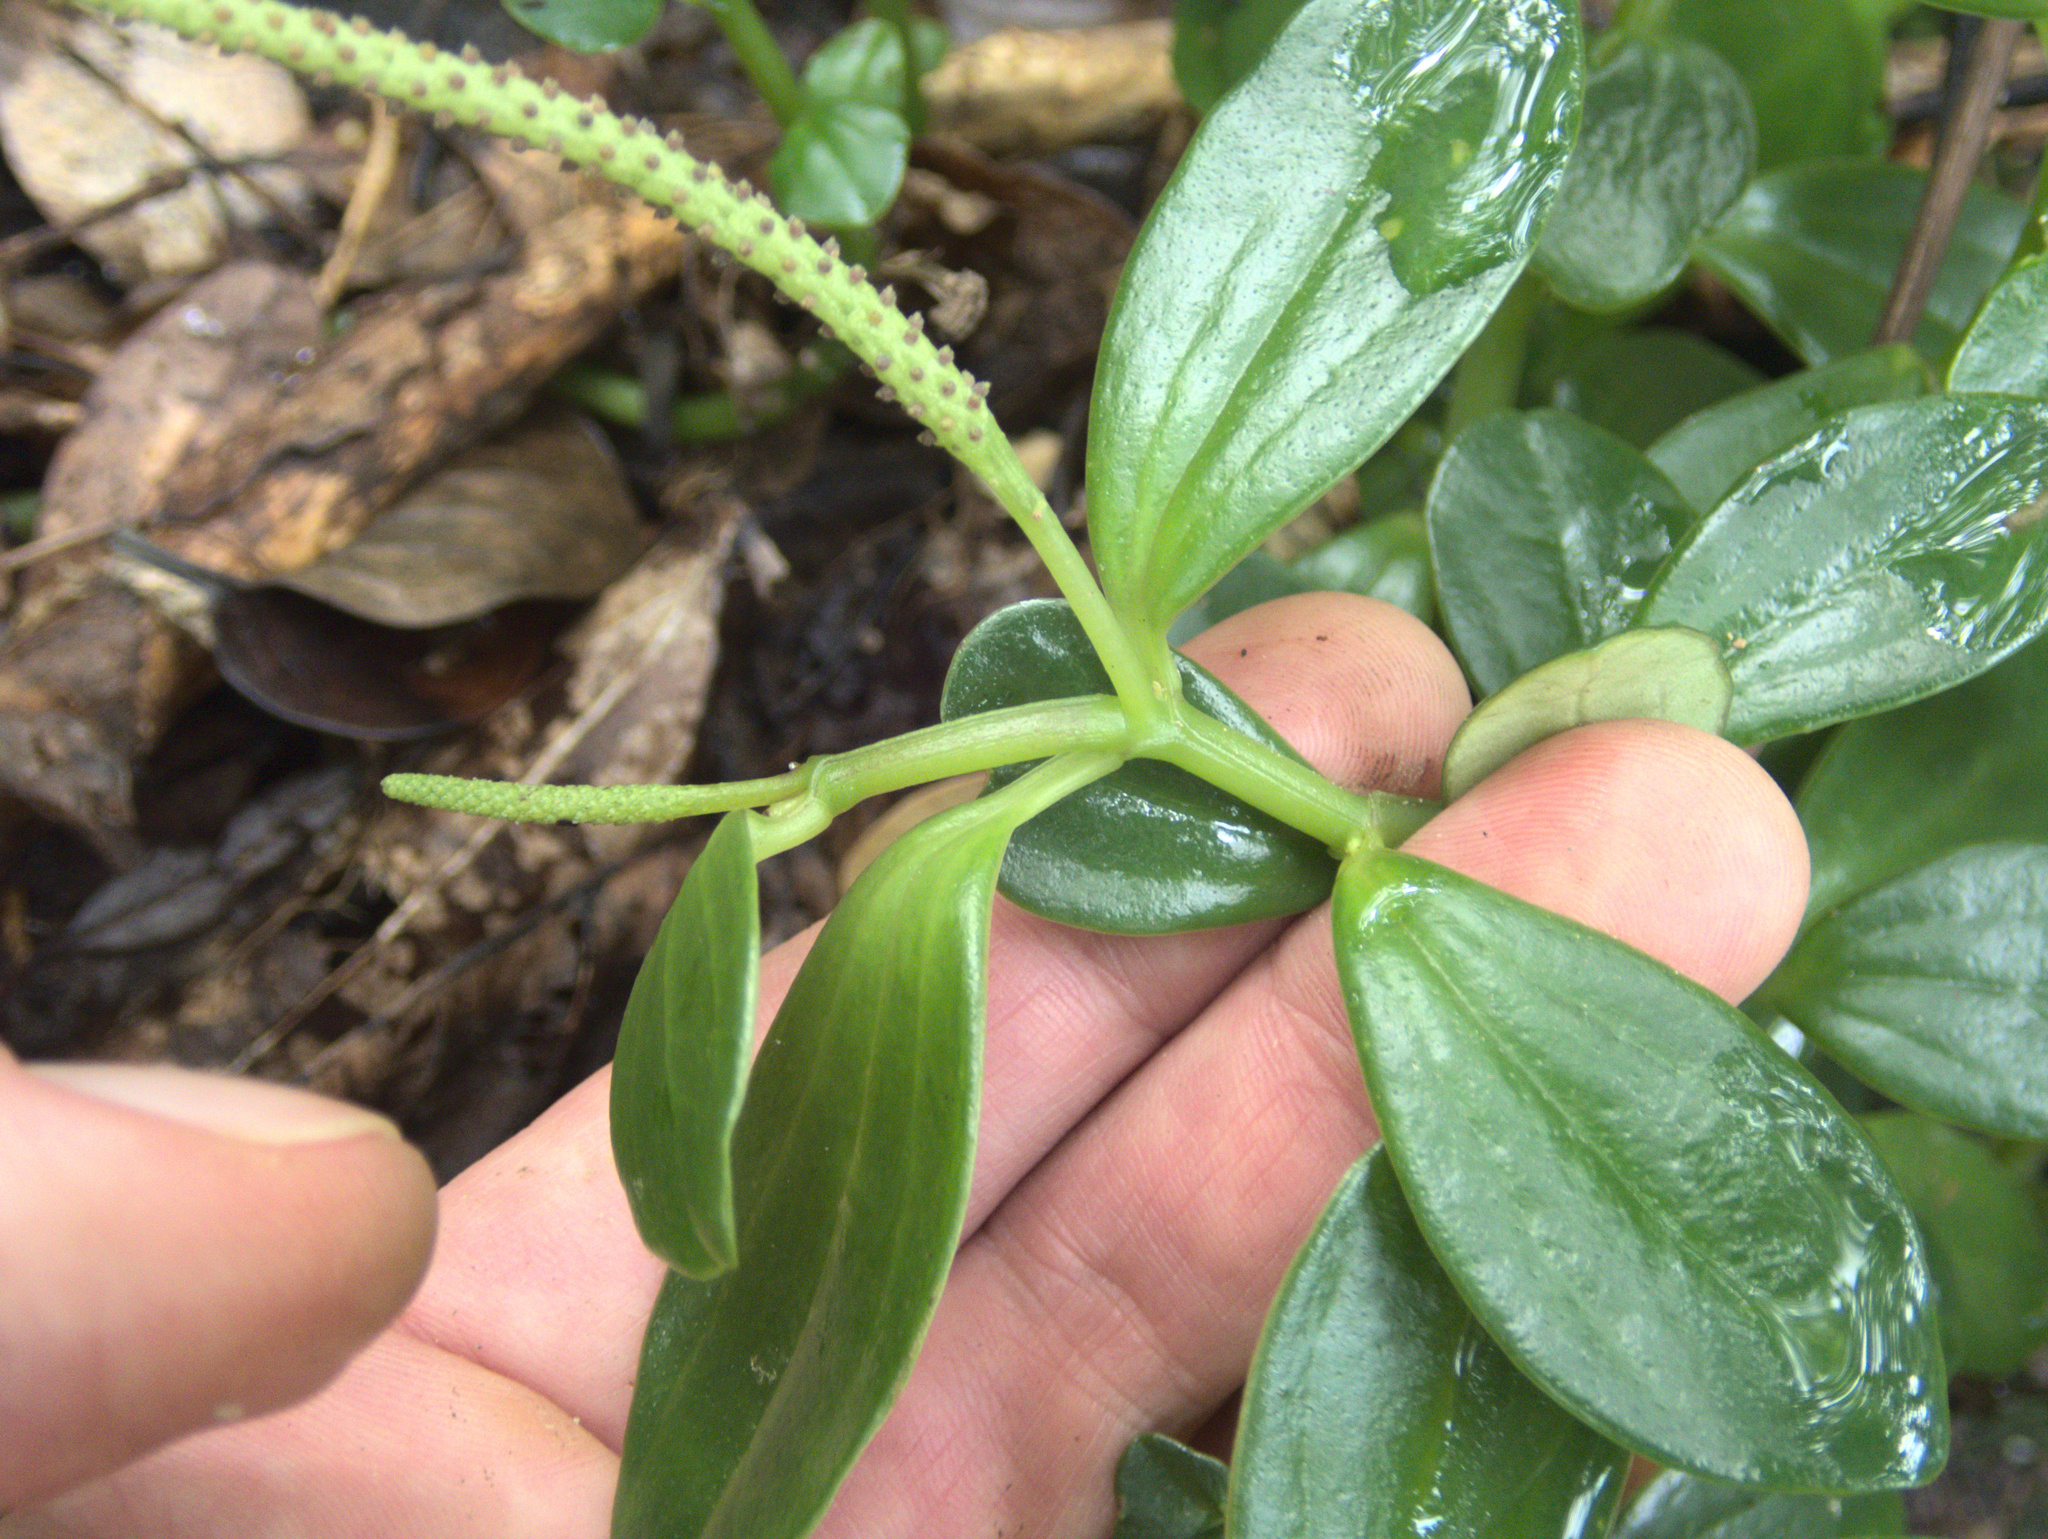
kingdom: Plantae
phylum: Tracheophyta
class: Magnoliopsida
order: Piperales
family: Piperaceae
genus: Peperomia
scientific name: Peperomia urvilleana
